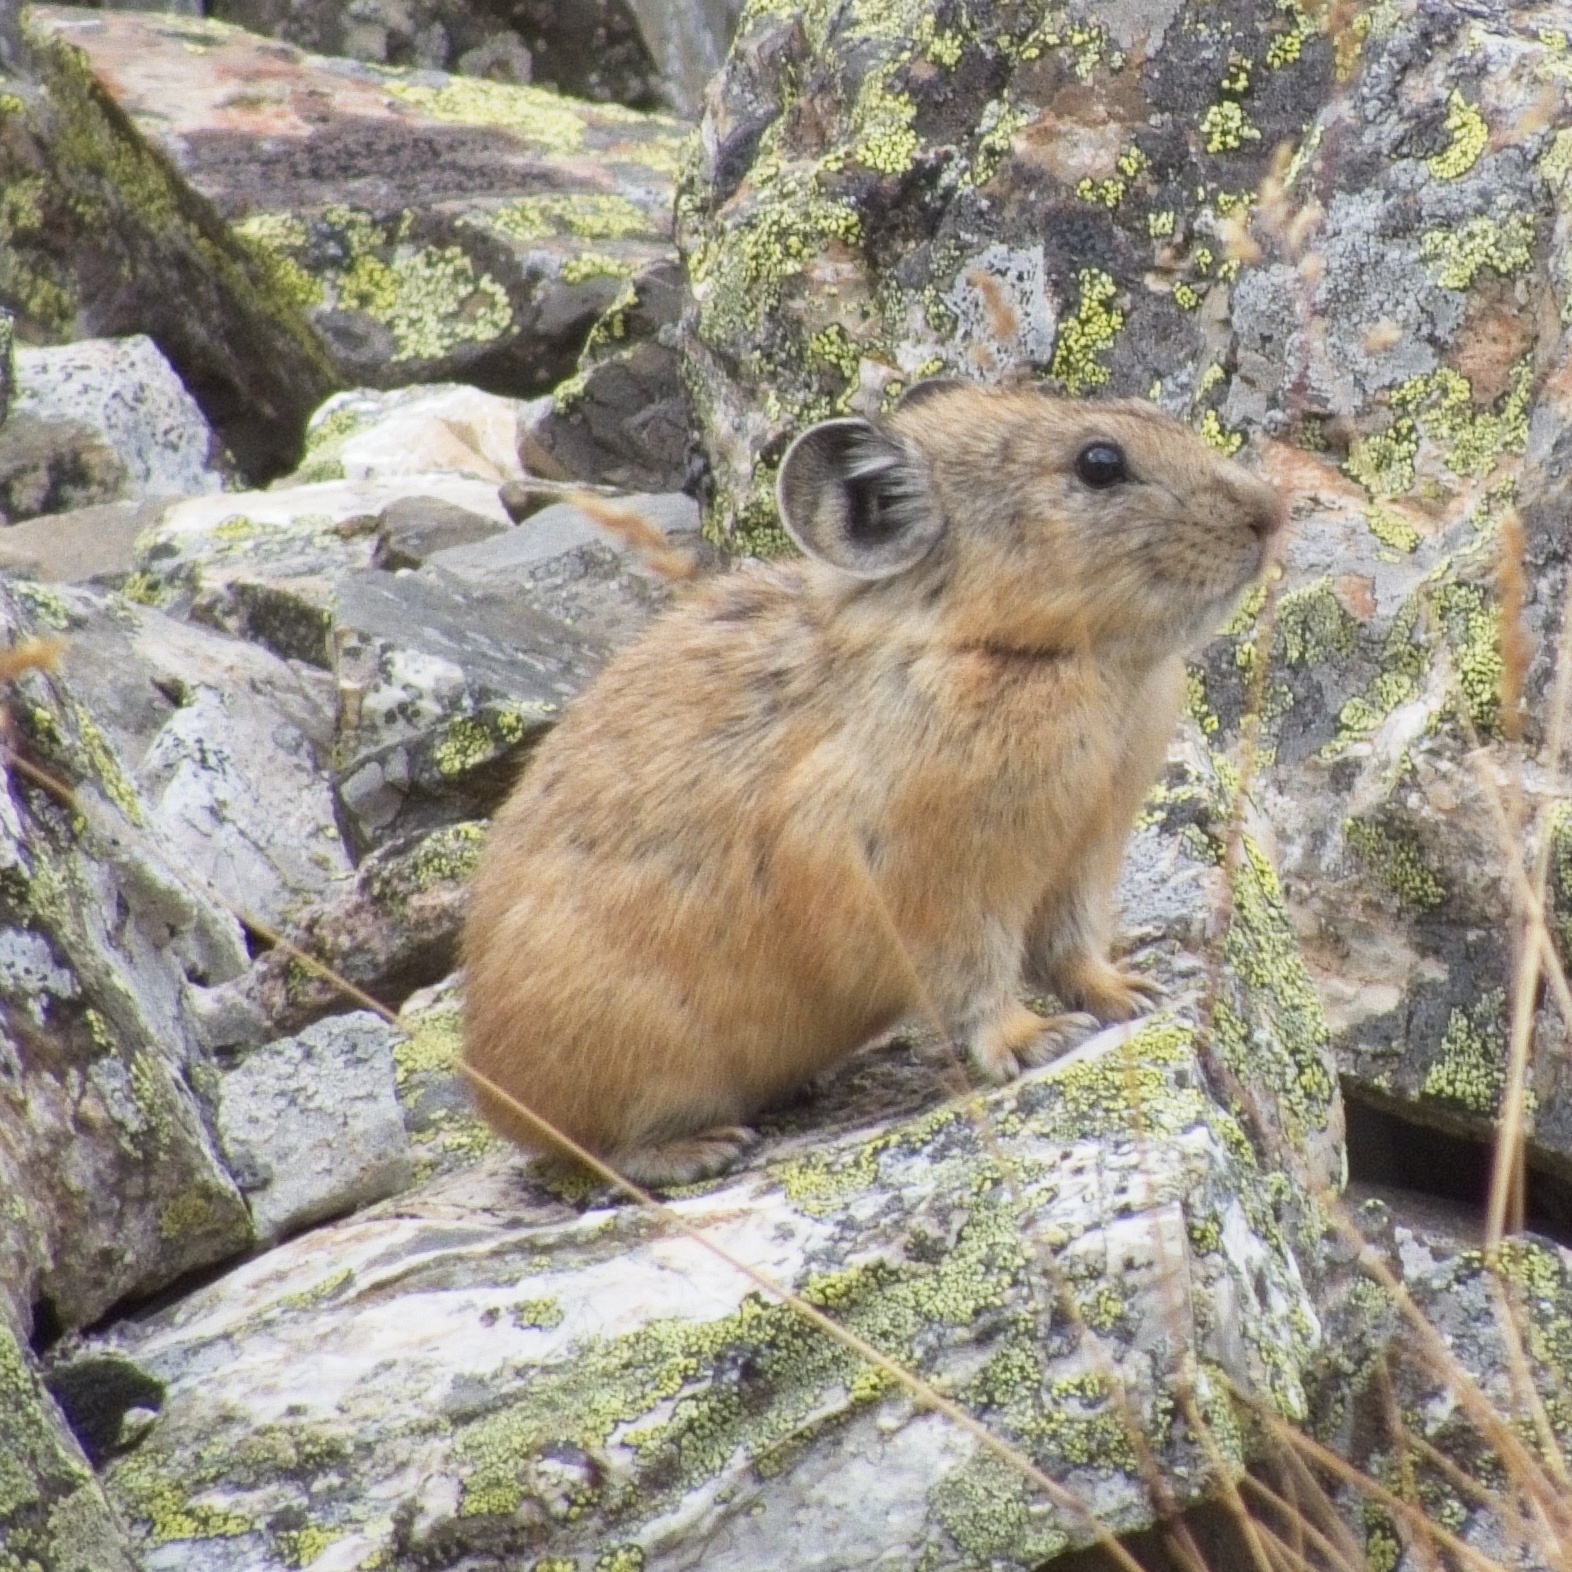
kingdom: Animalia
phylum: Chordata
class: Mammalia
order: Lagomorpha
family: Ochotonidae
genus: Ochotona
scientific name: Ochotona alpina
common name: Alpine pika
